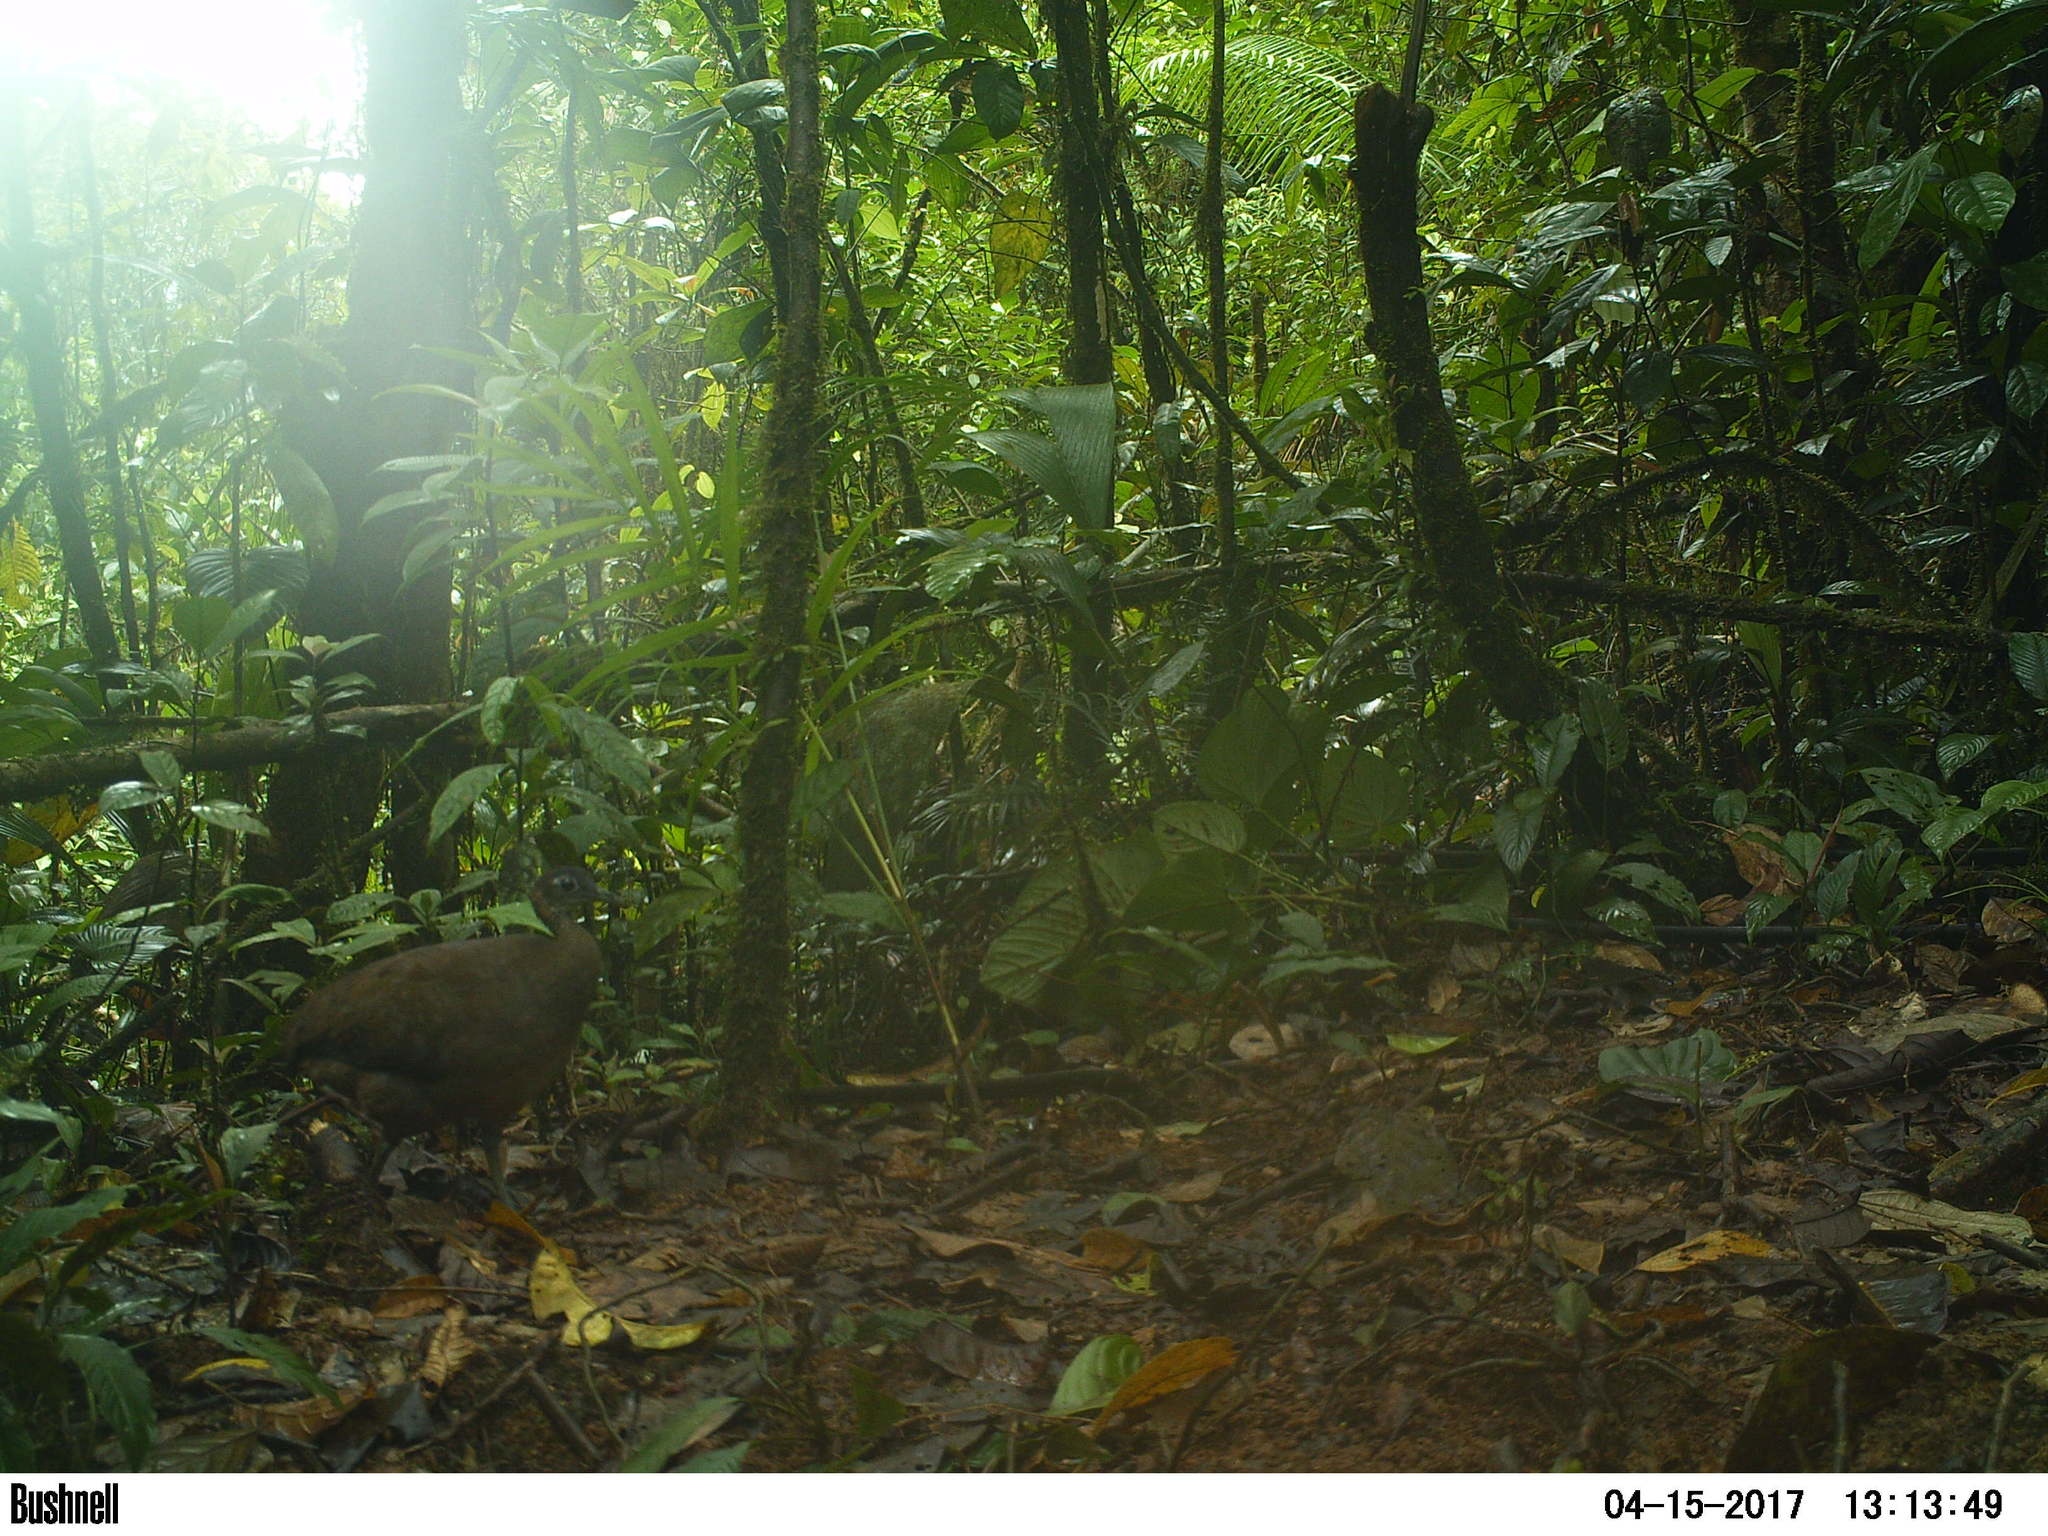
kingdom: Animalia
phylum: Chordata
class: Aves
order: Tinamiformes
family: Tinamidae
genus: Tinamus
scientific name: Tinamus major
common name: Great tinamou
